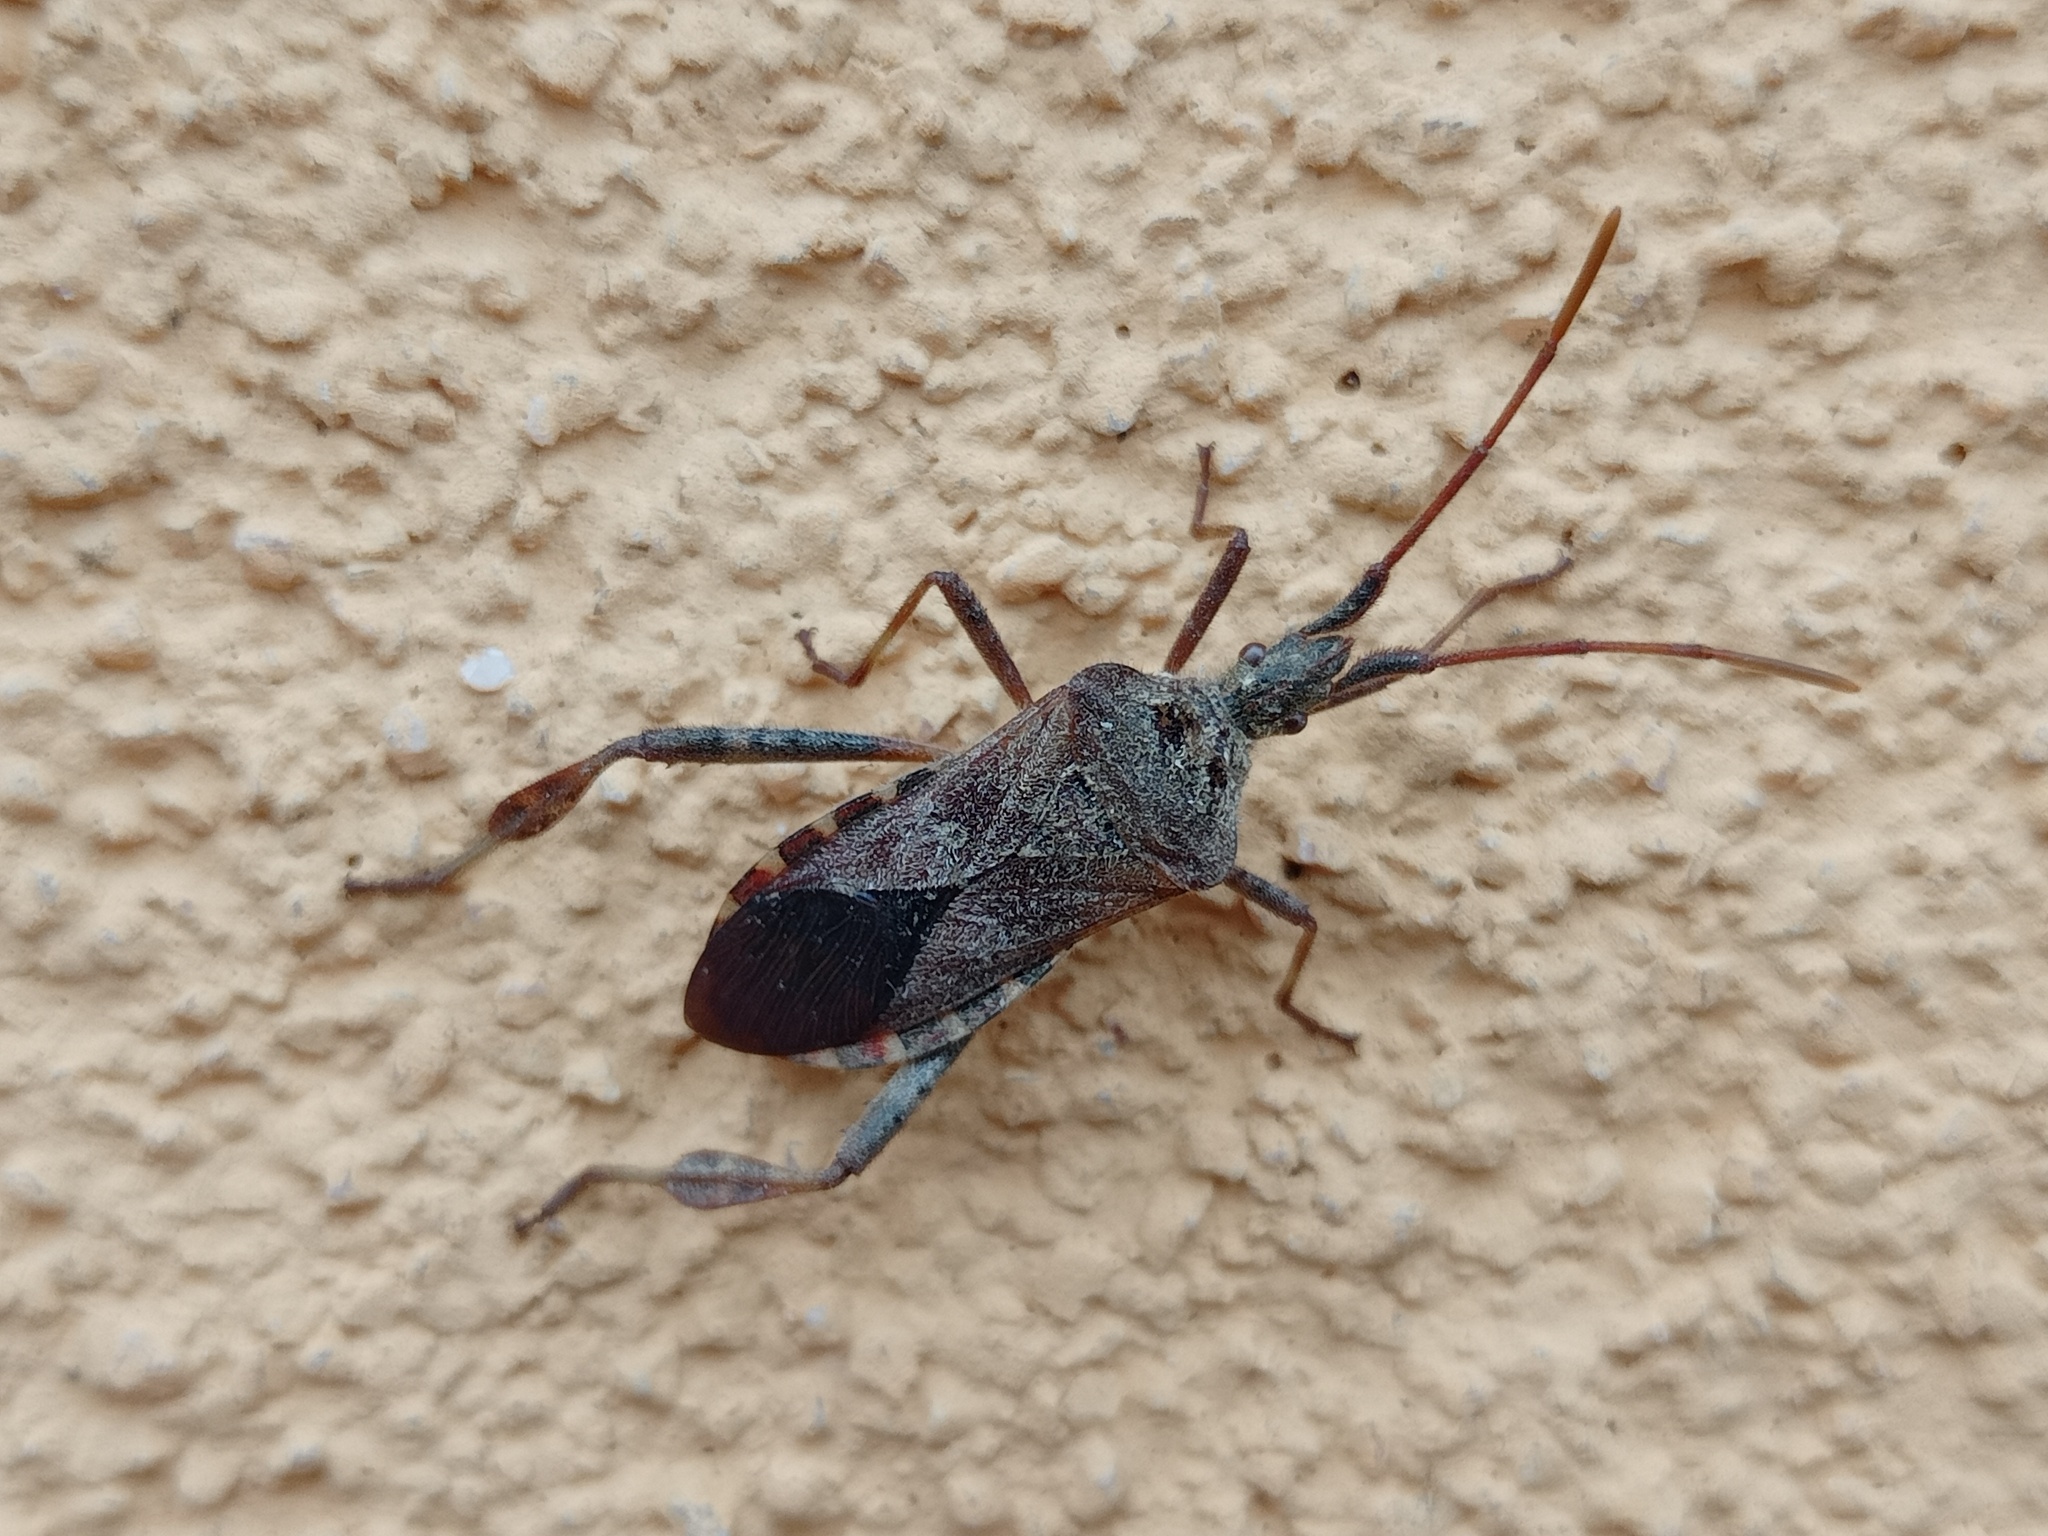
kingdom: Animalia
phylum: Arthropoda
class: Insecta
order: Hemiptera
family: Coreidae
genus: Leptoglossus
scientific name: Leptoglossus occidentalis
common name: Western conifer-seed bug
